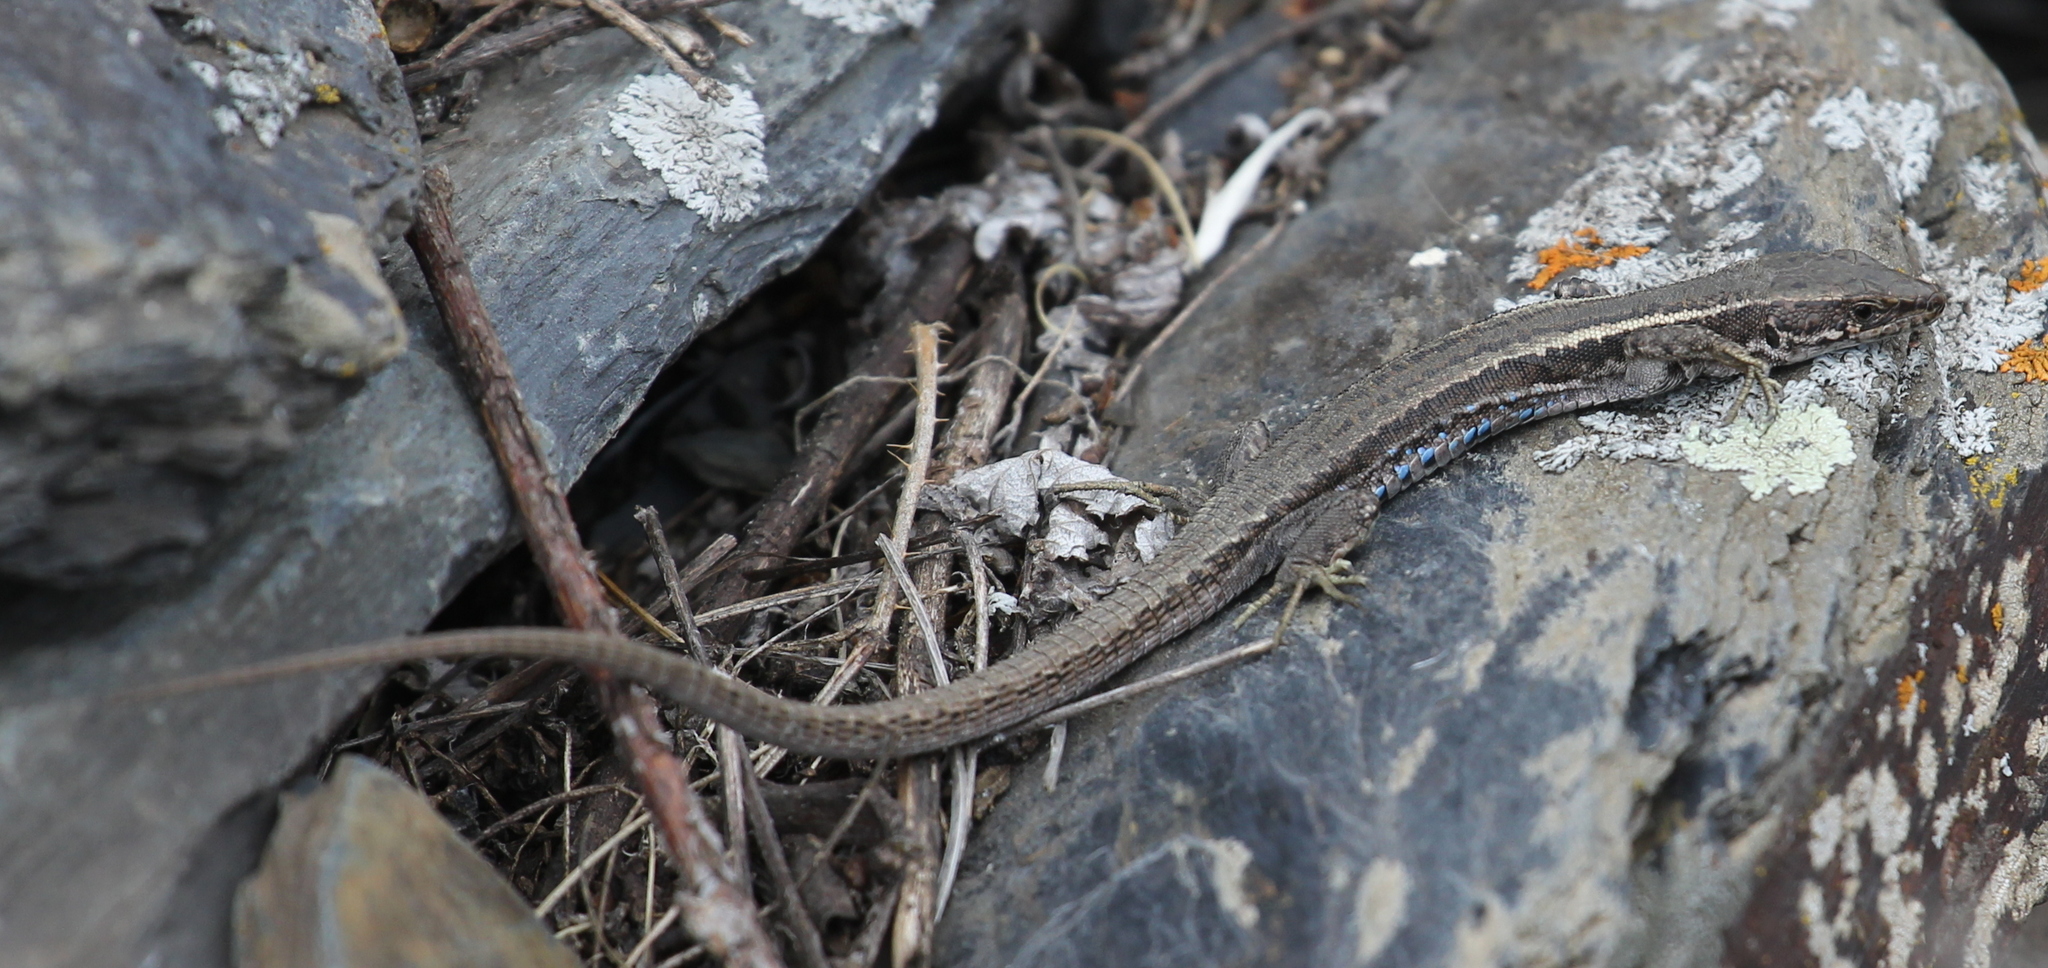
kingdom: Animalia
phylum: Chordata
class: Squamata
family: Lacertidae
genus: Darevskia
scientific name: Darevskia caucasica
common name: Caucasian llzard
